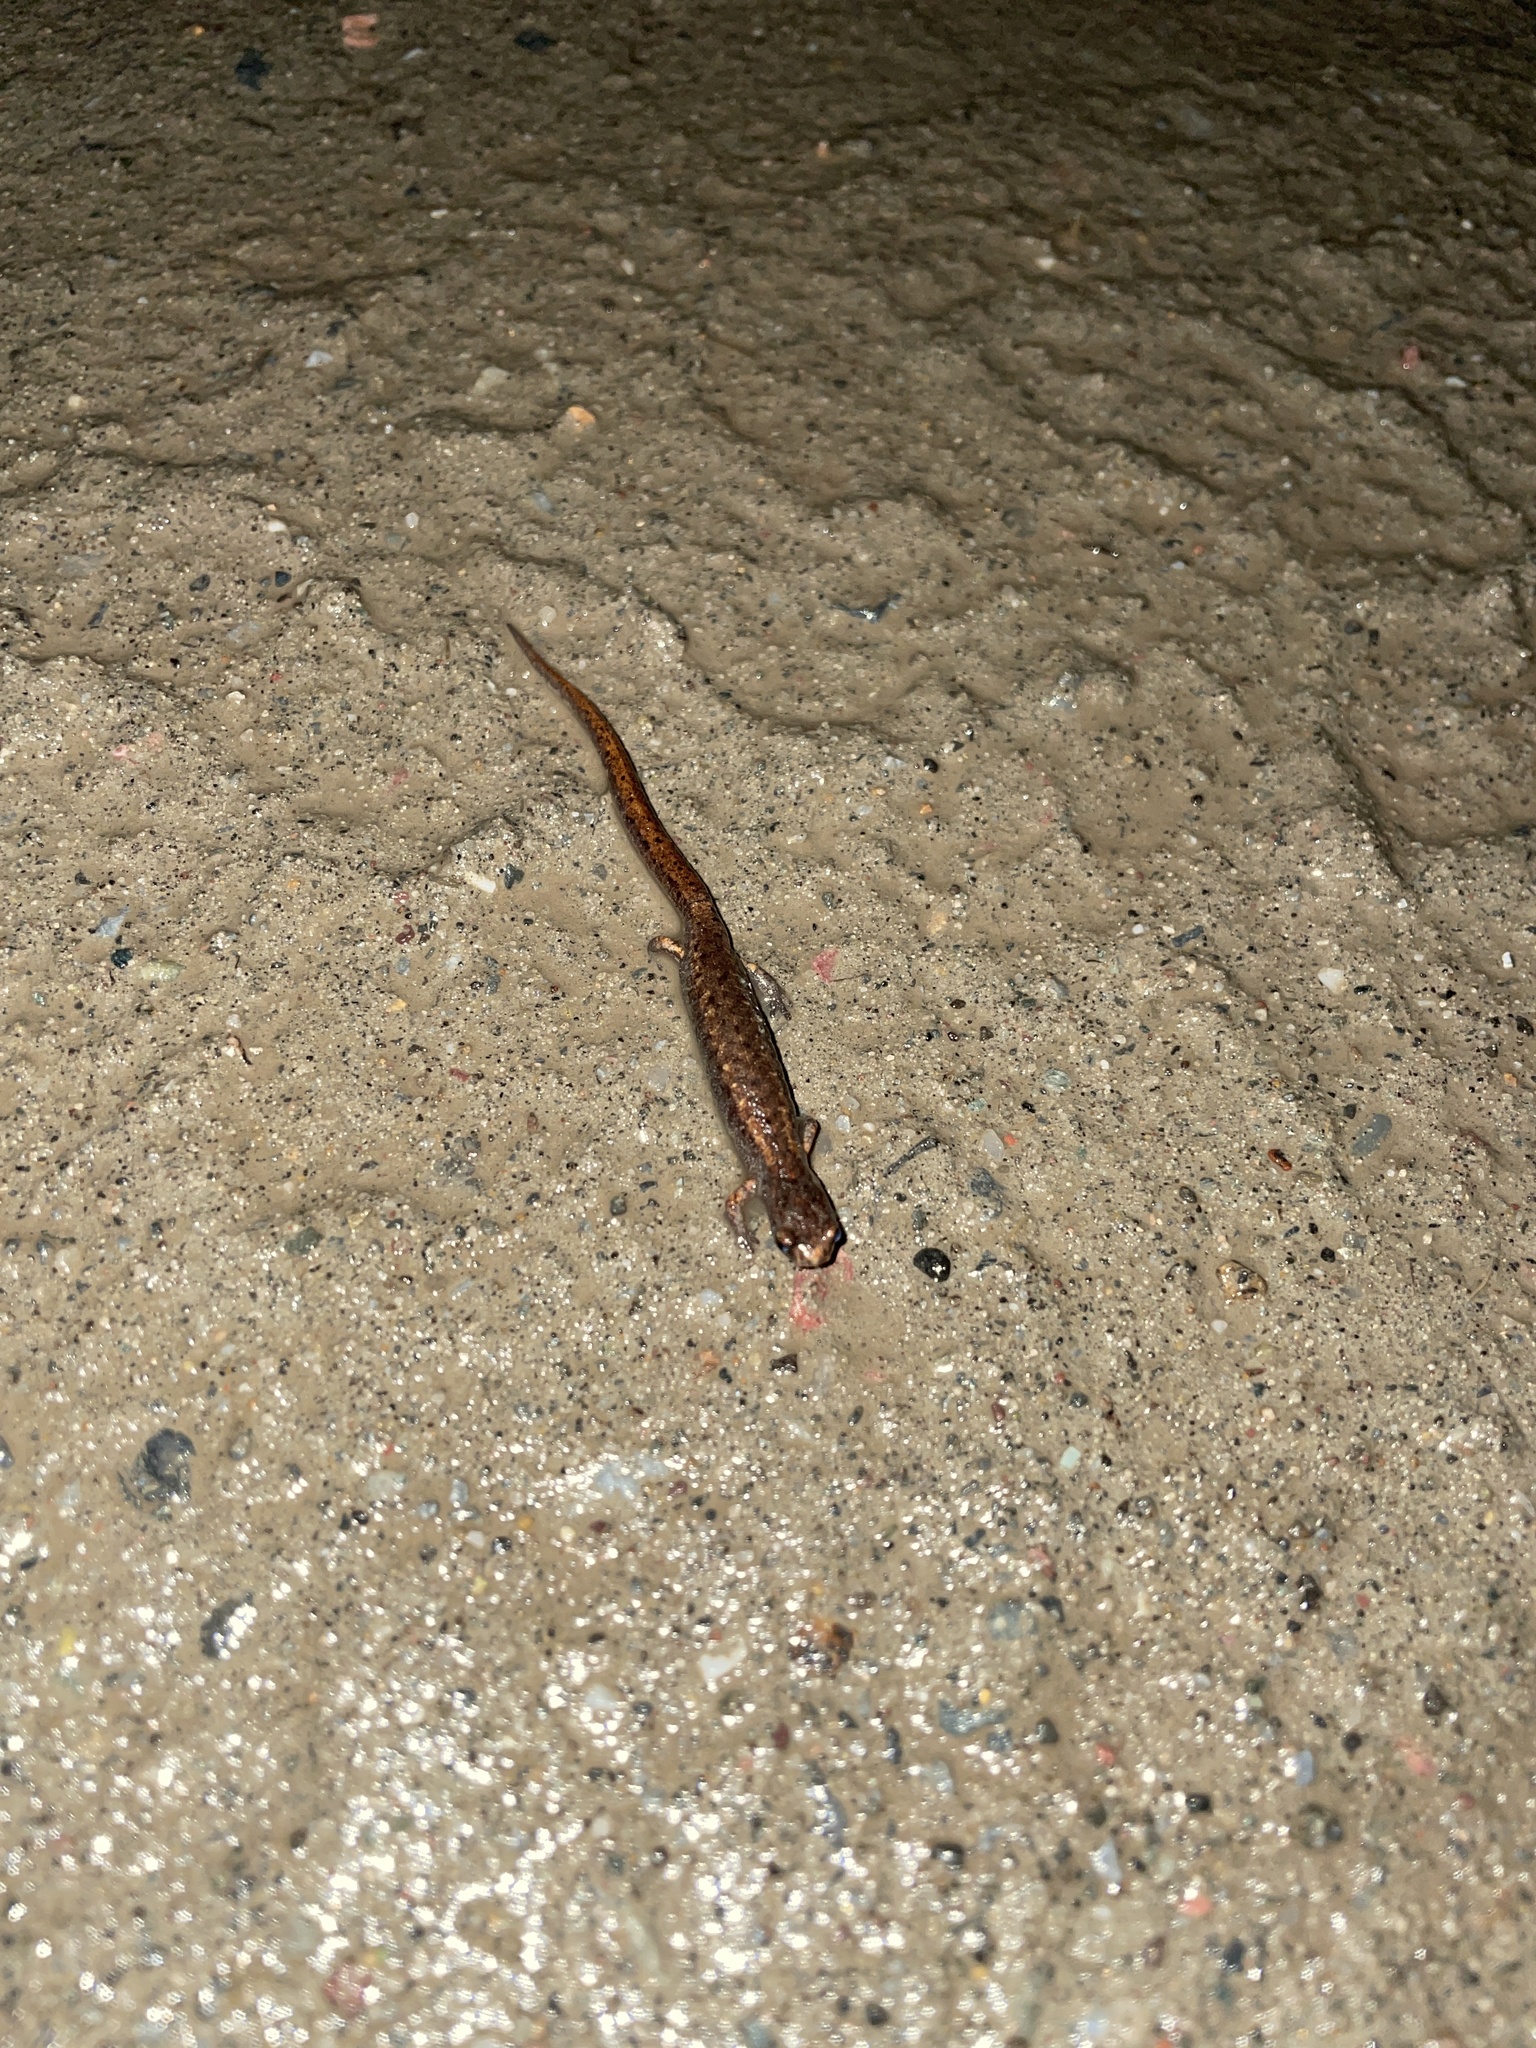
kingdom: Animalia
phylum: Chordata
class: Amphibia
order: Caudata
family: Plethodontidae
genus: Hemidactylium
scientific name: Hemidactylium scutatum
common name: Four-toed salamander
